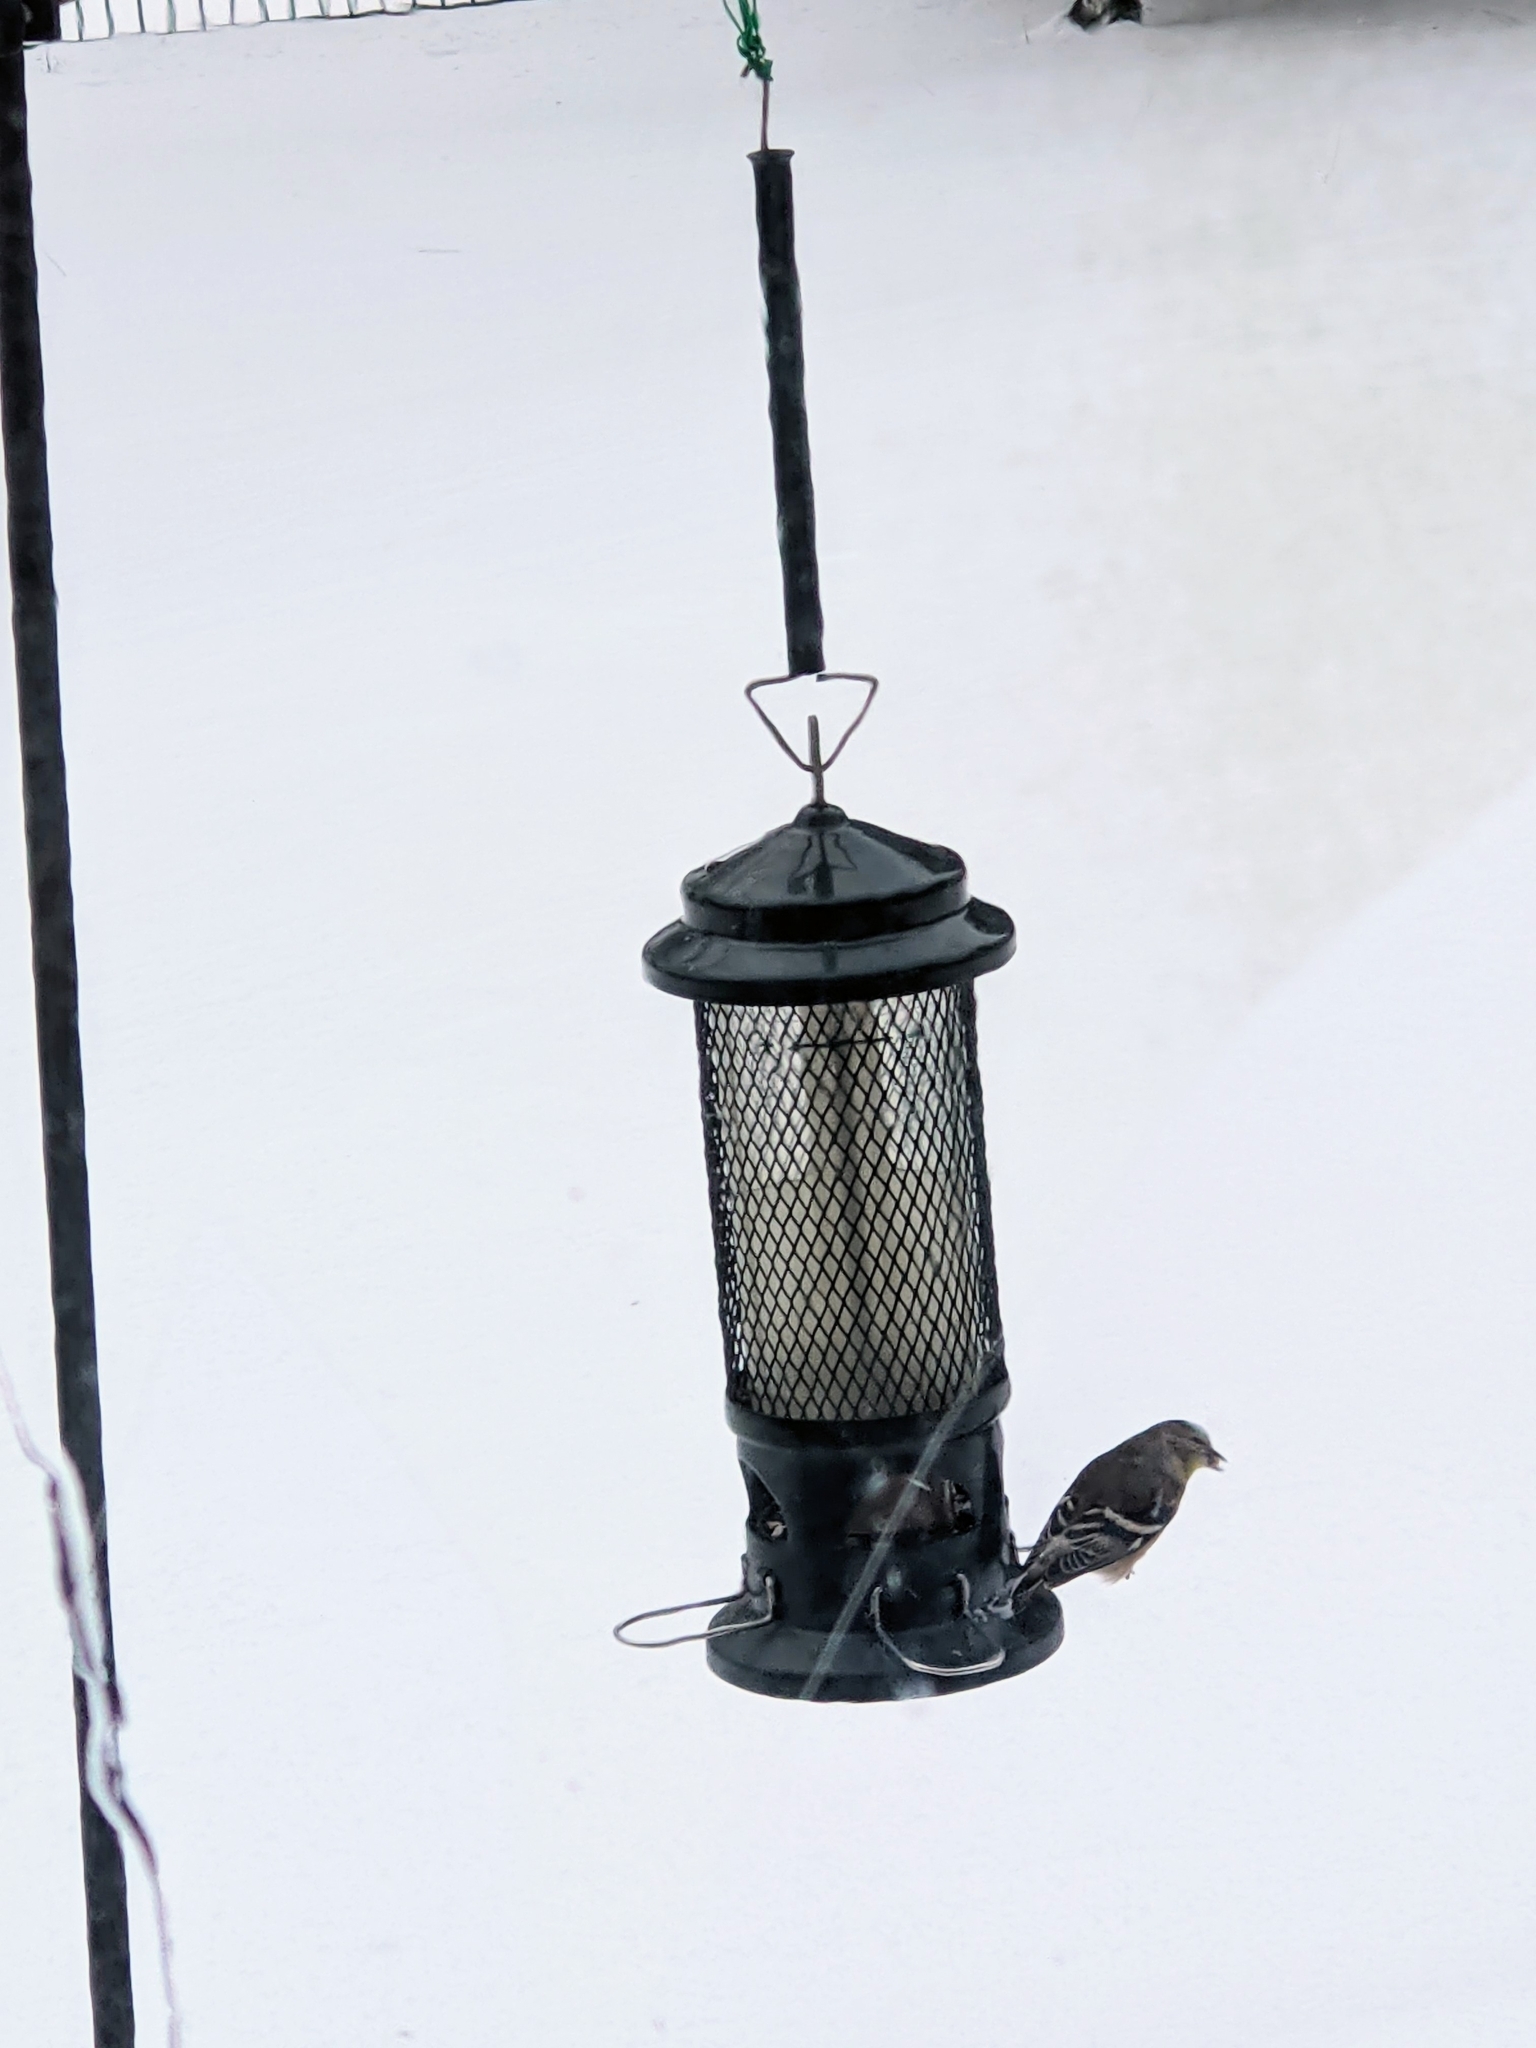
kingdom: Animalia
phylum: Chordata
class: Aves
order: Passeriformes
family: Fringillidae
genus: Spinus
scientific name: Spinus tristis
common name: American goldfinch
